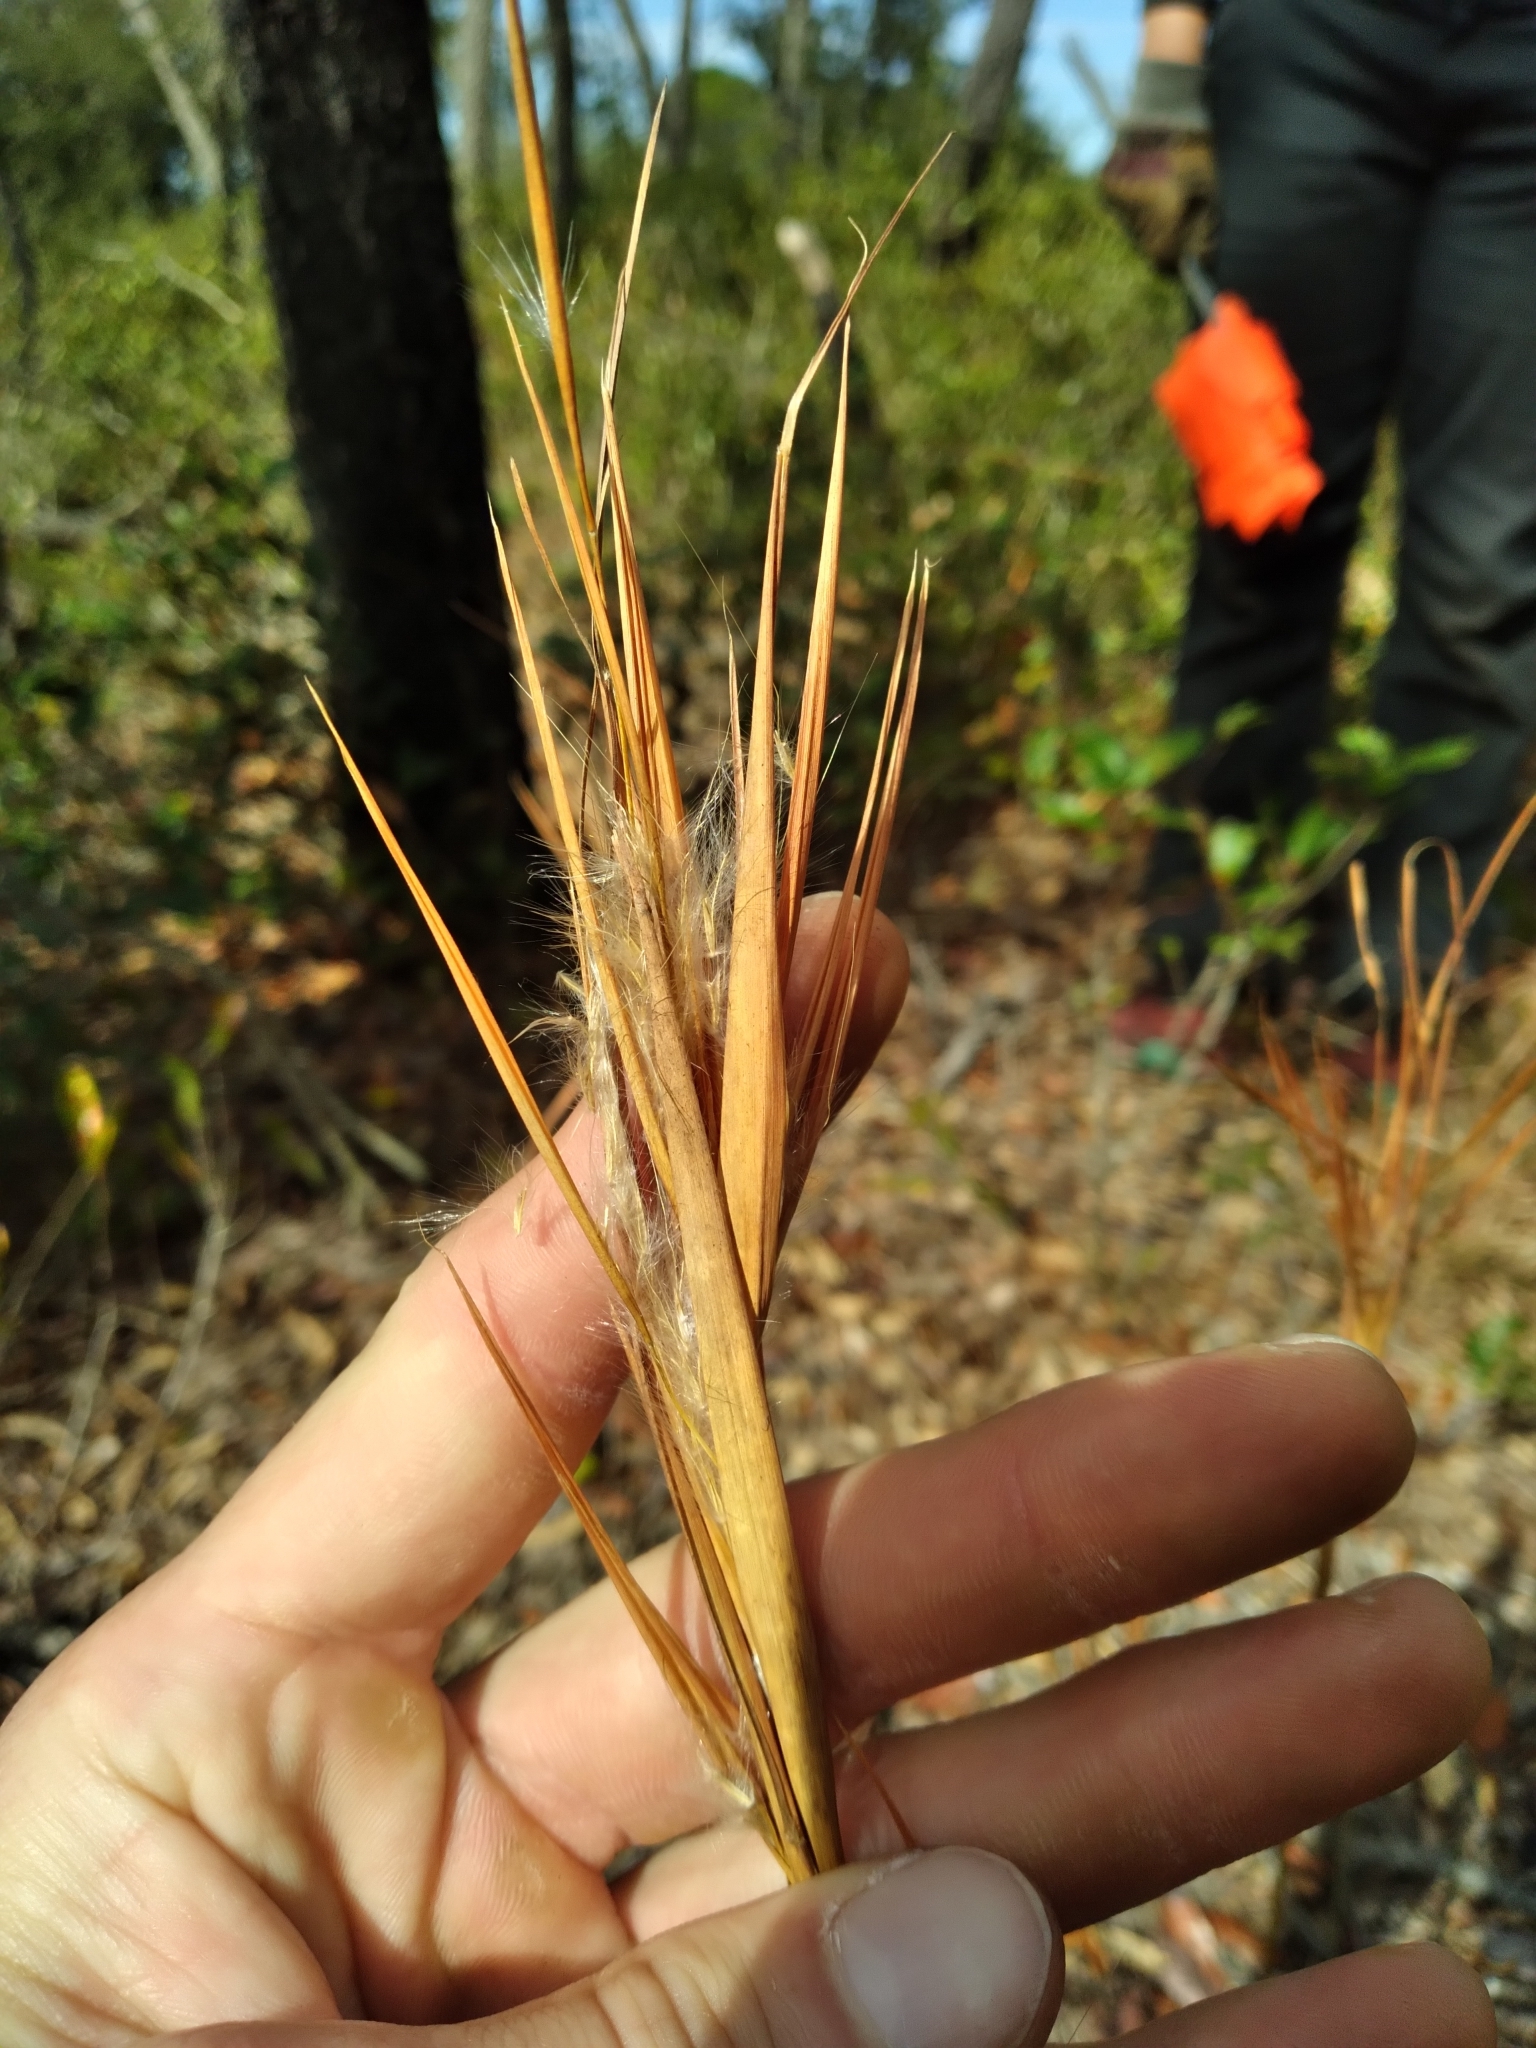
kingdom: Plantae
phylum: Tracheophyta
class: Liliopsida
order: Poales
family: Poaceae
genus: Andropogon
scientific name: Andropogon gyrans
